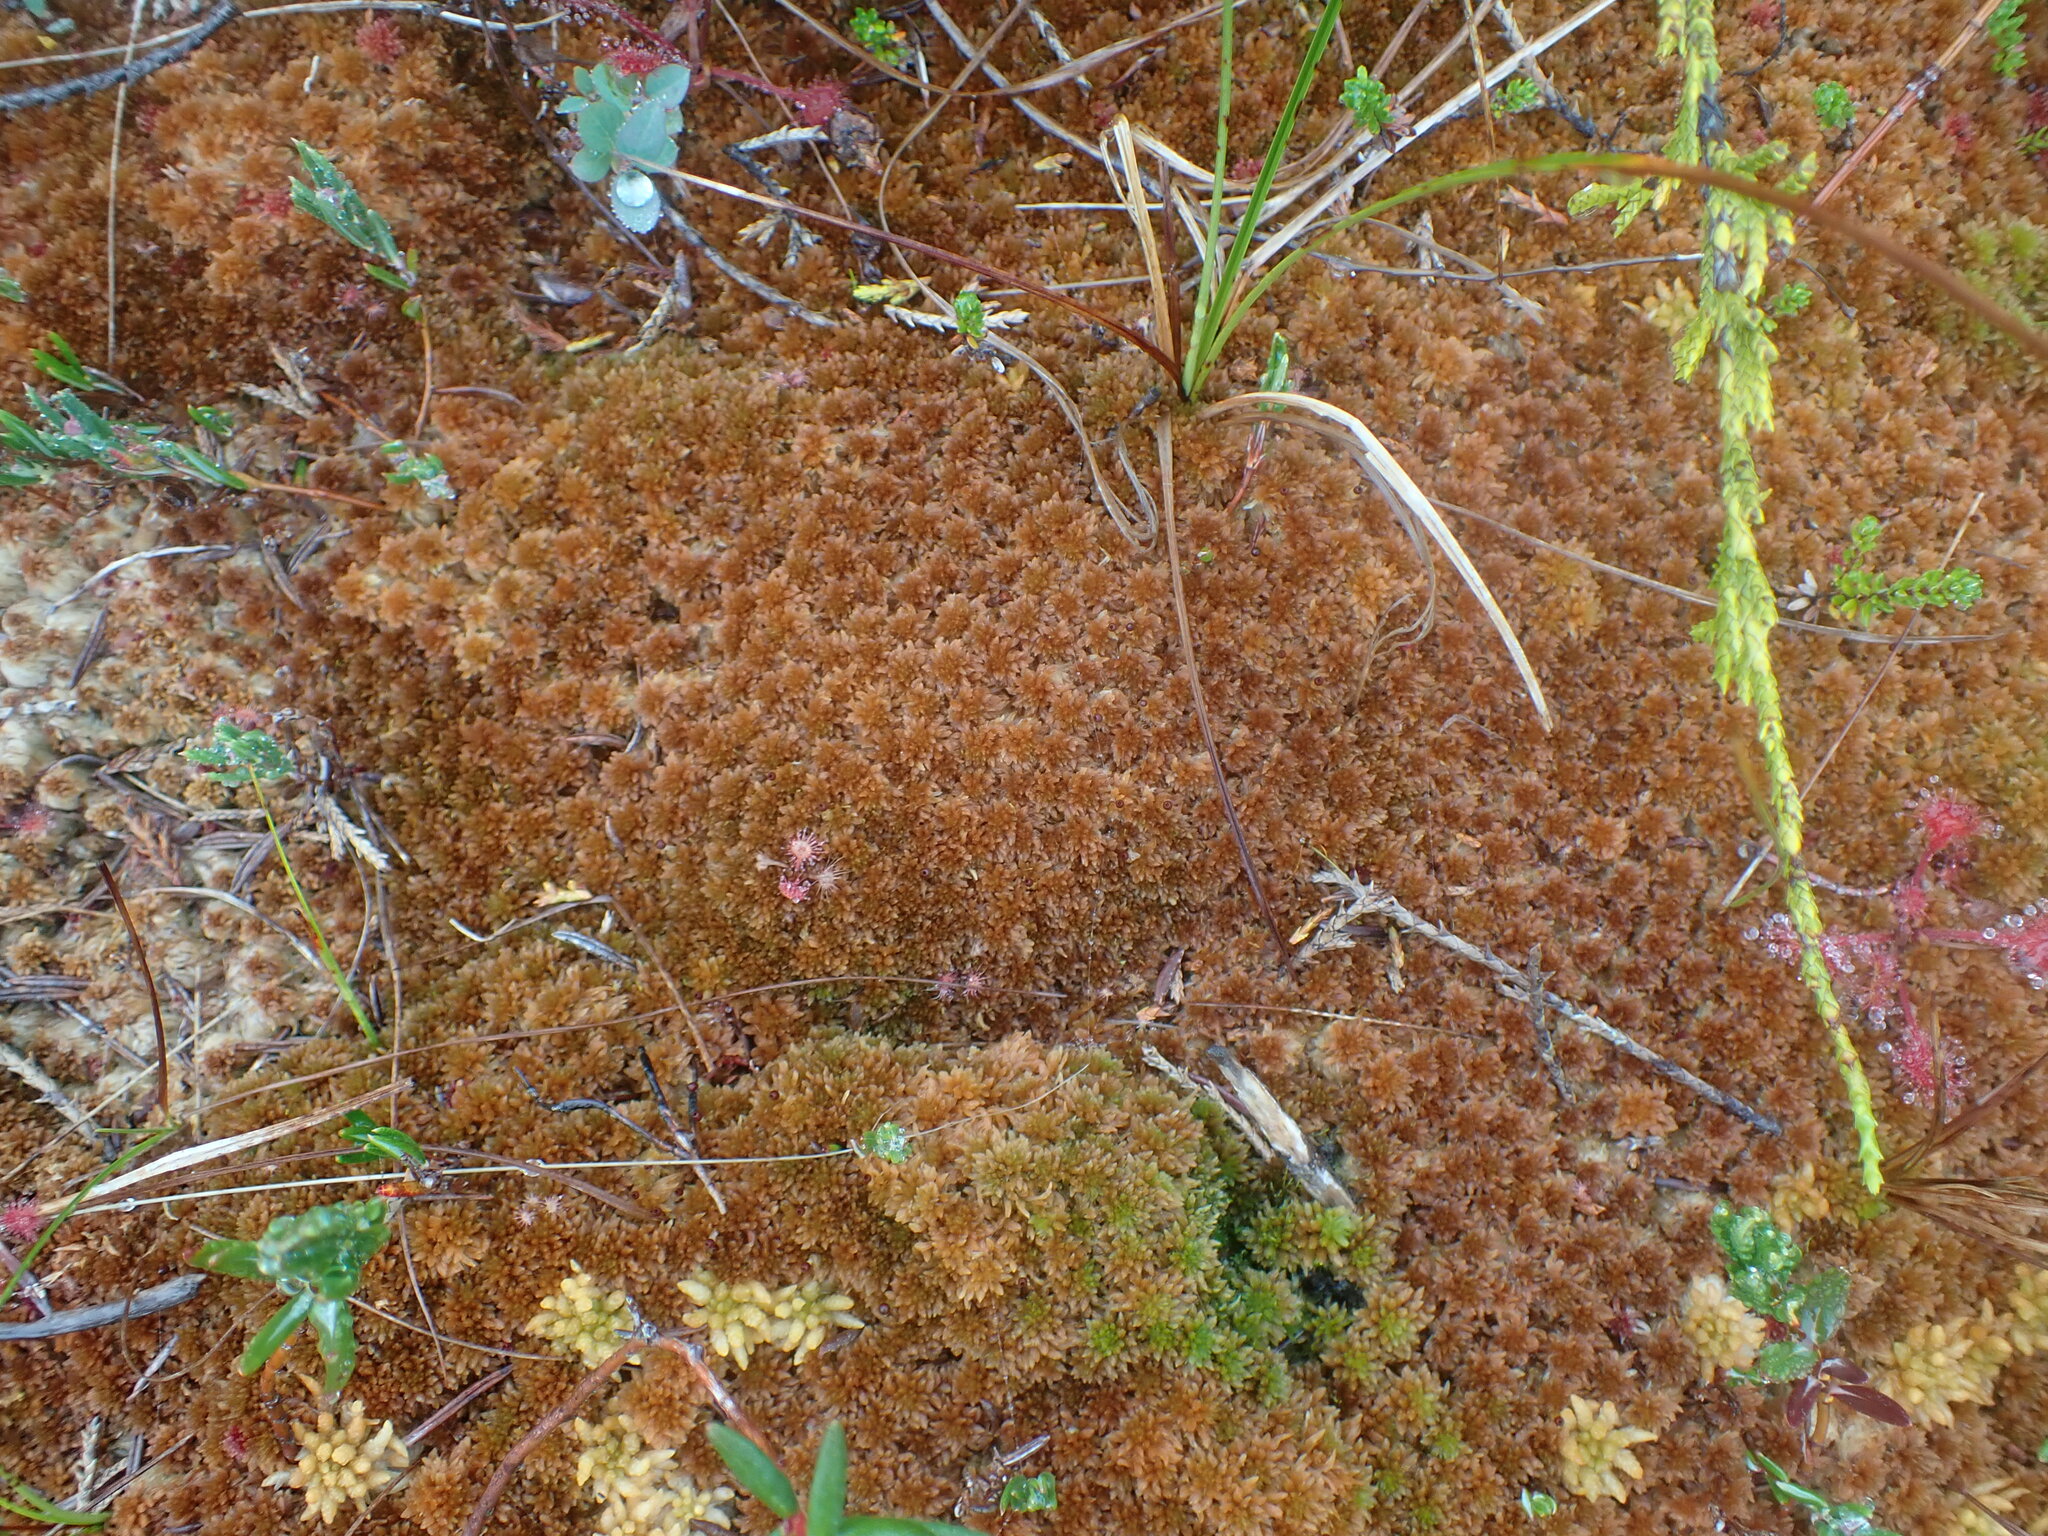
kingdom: Plantae
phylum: Bryophyta
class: Sphagnopsida
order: Sphagnales
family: Sphagnaceae
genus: Sphagnum
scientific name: Sphagnum fuscum
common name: Brown peat moss
